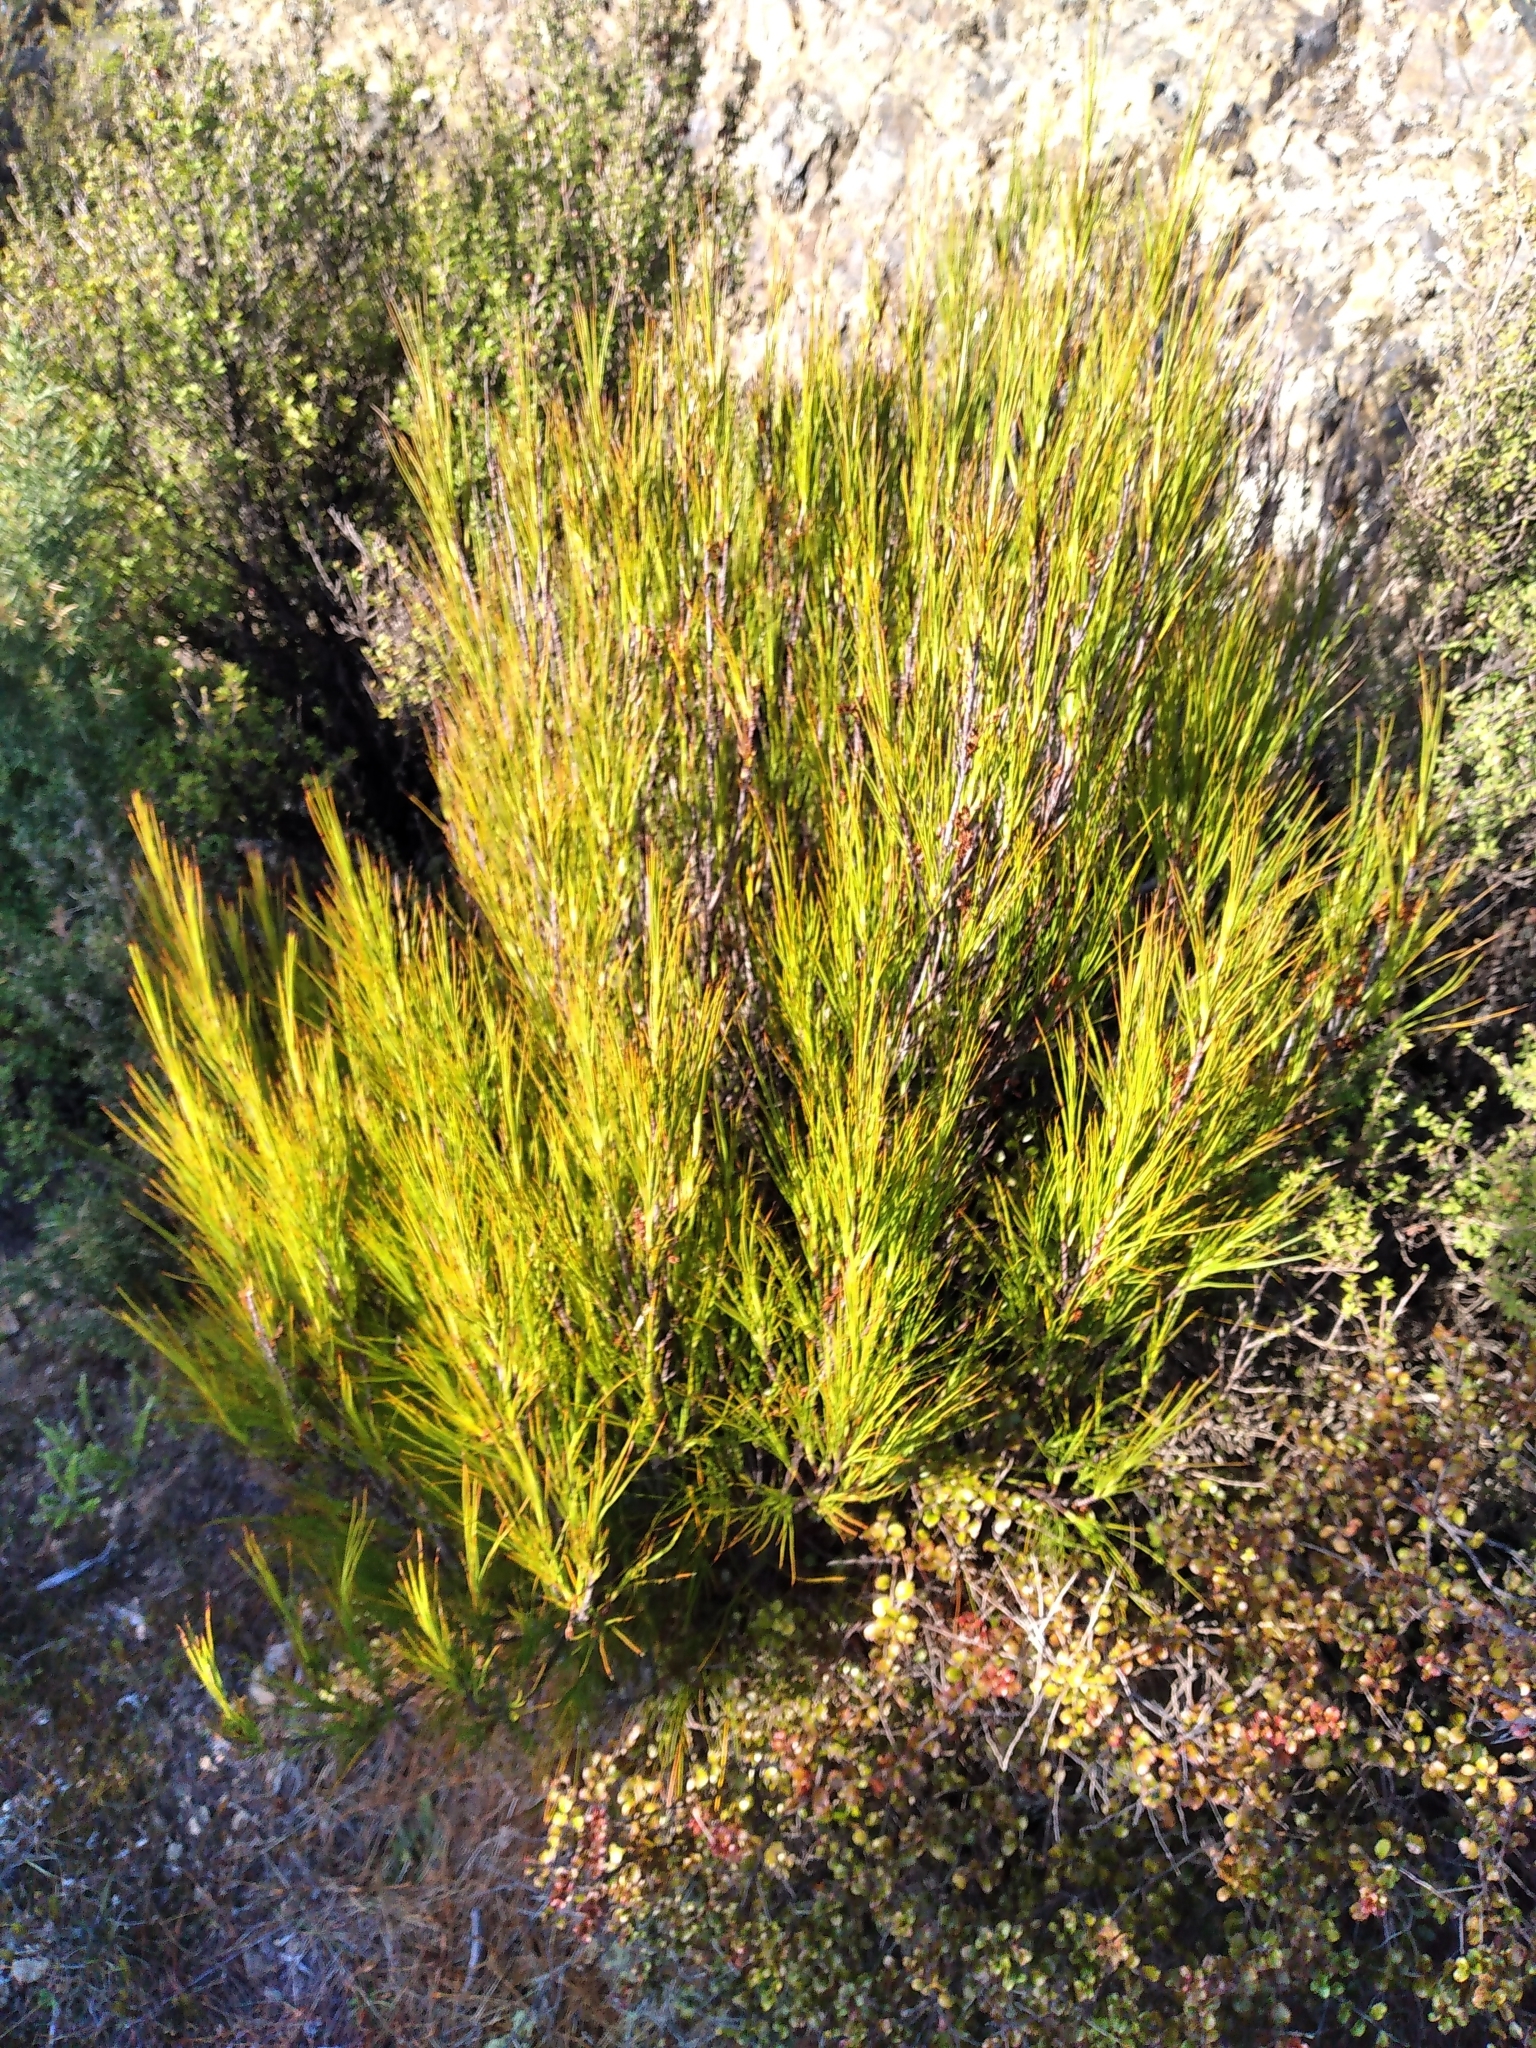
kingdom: Plantae
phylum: Tracheophyta
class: Magnoliopsida
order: Ericales
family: Ericaceae
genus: Dracophyllum
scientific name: Dracophyllum filifolium
